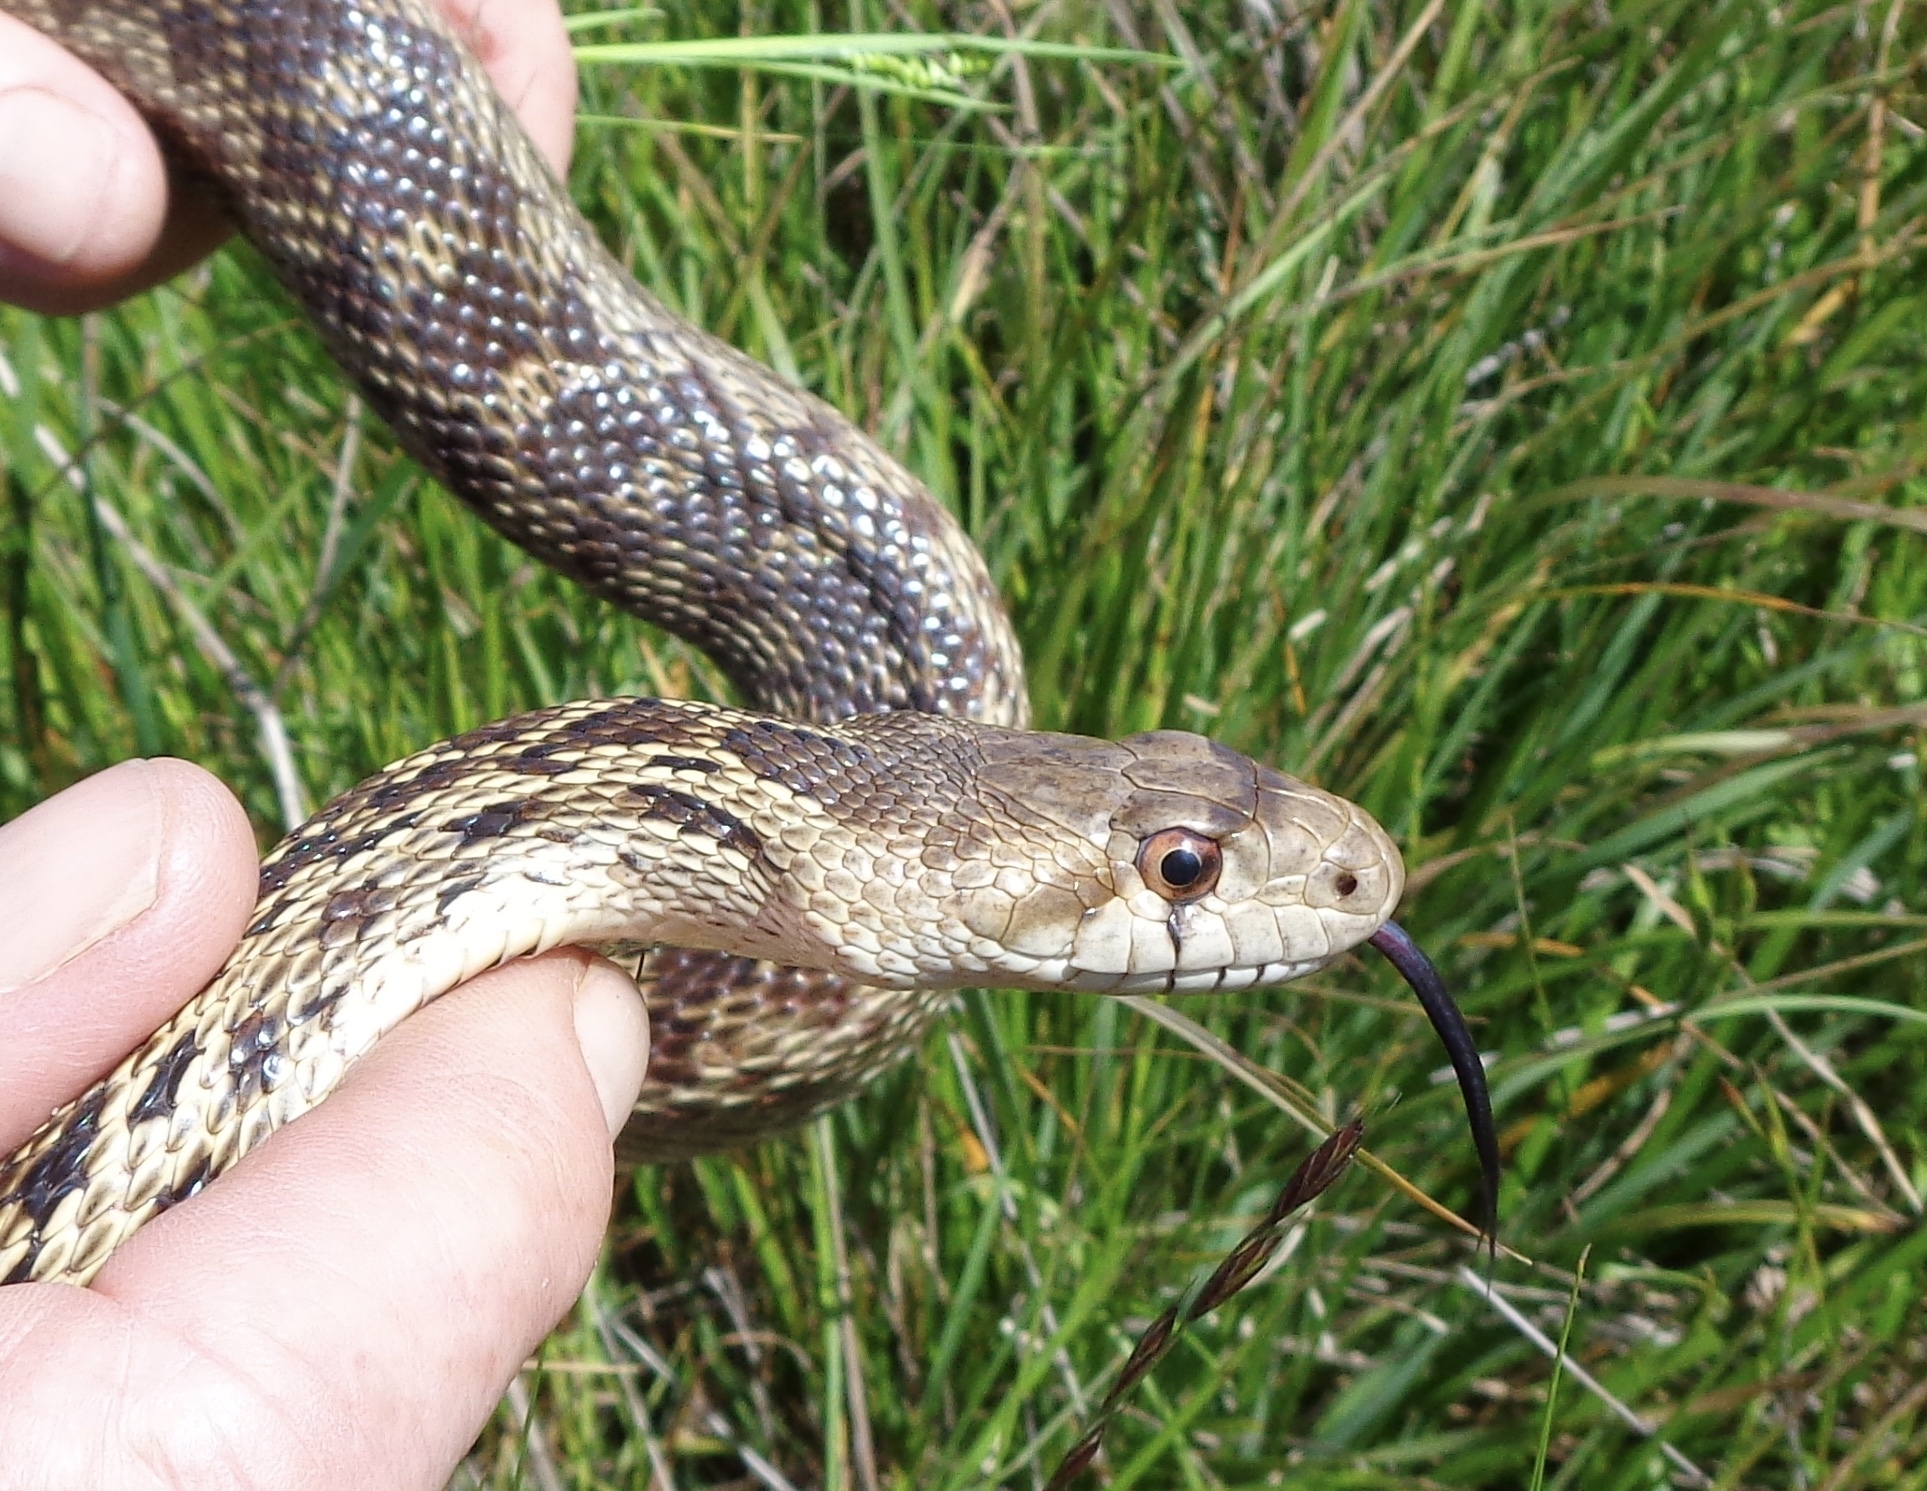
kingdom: Animalia
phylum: Chordata
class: Squamata
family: Colubridae
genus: Pituophis
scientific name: Pituophis catenifer
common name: Gopher snake
